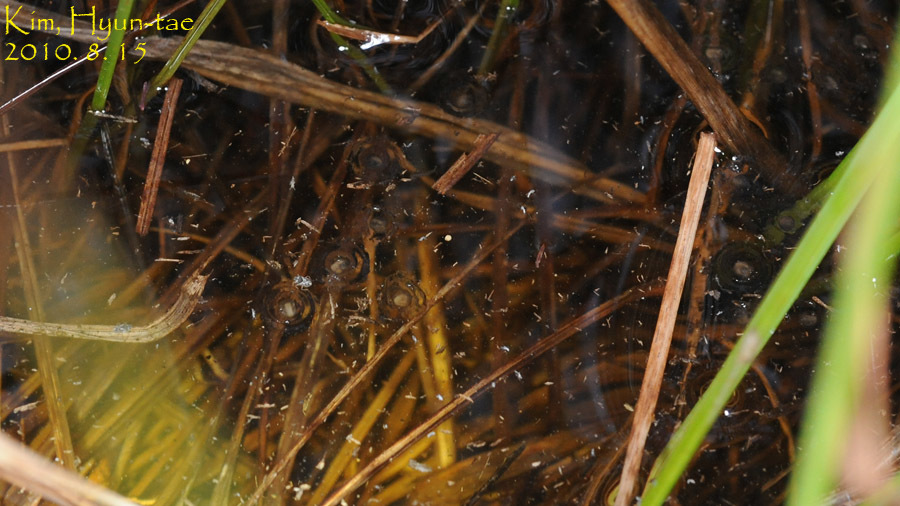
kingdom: Animalia
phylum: Chordata
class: Amphibia
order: Anura
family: Microhylidae
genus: Kaloula
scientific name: Kaloula borealis
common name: Boreal digging frog
